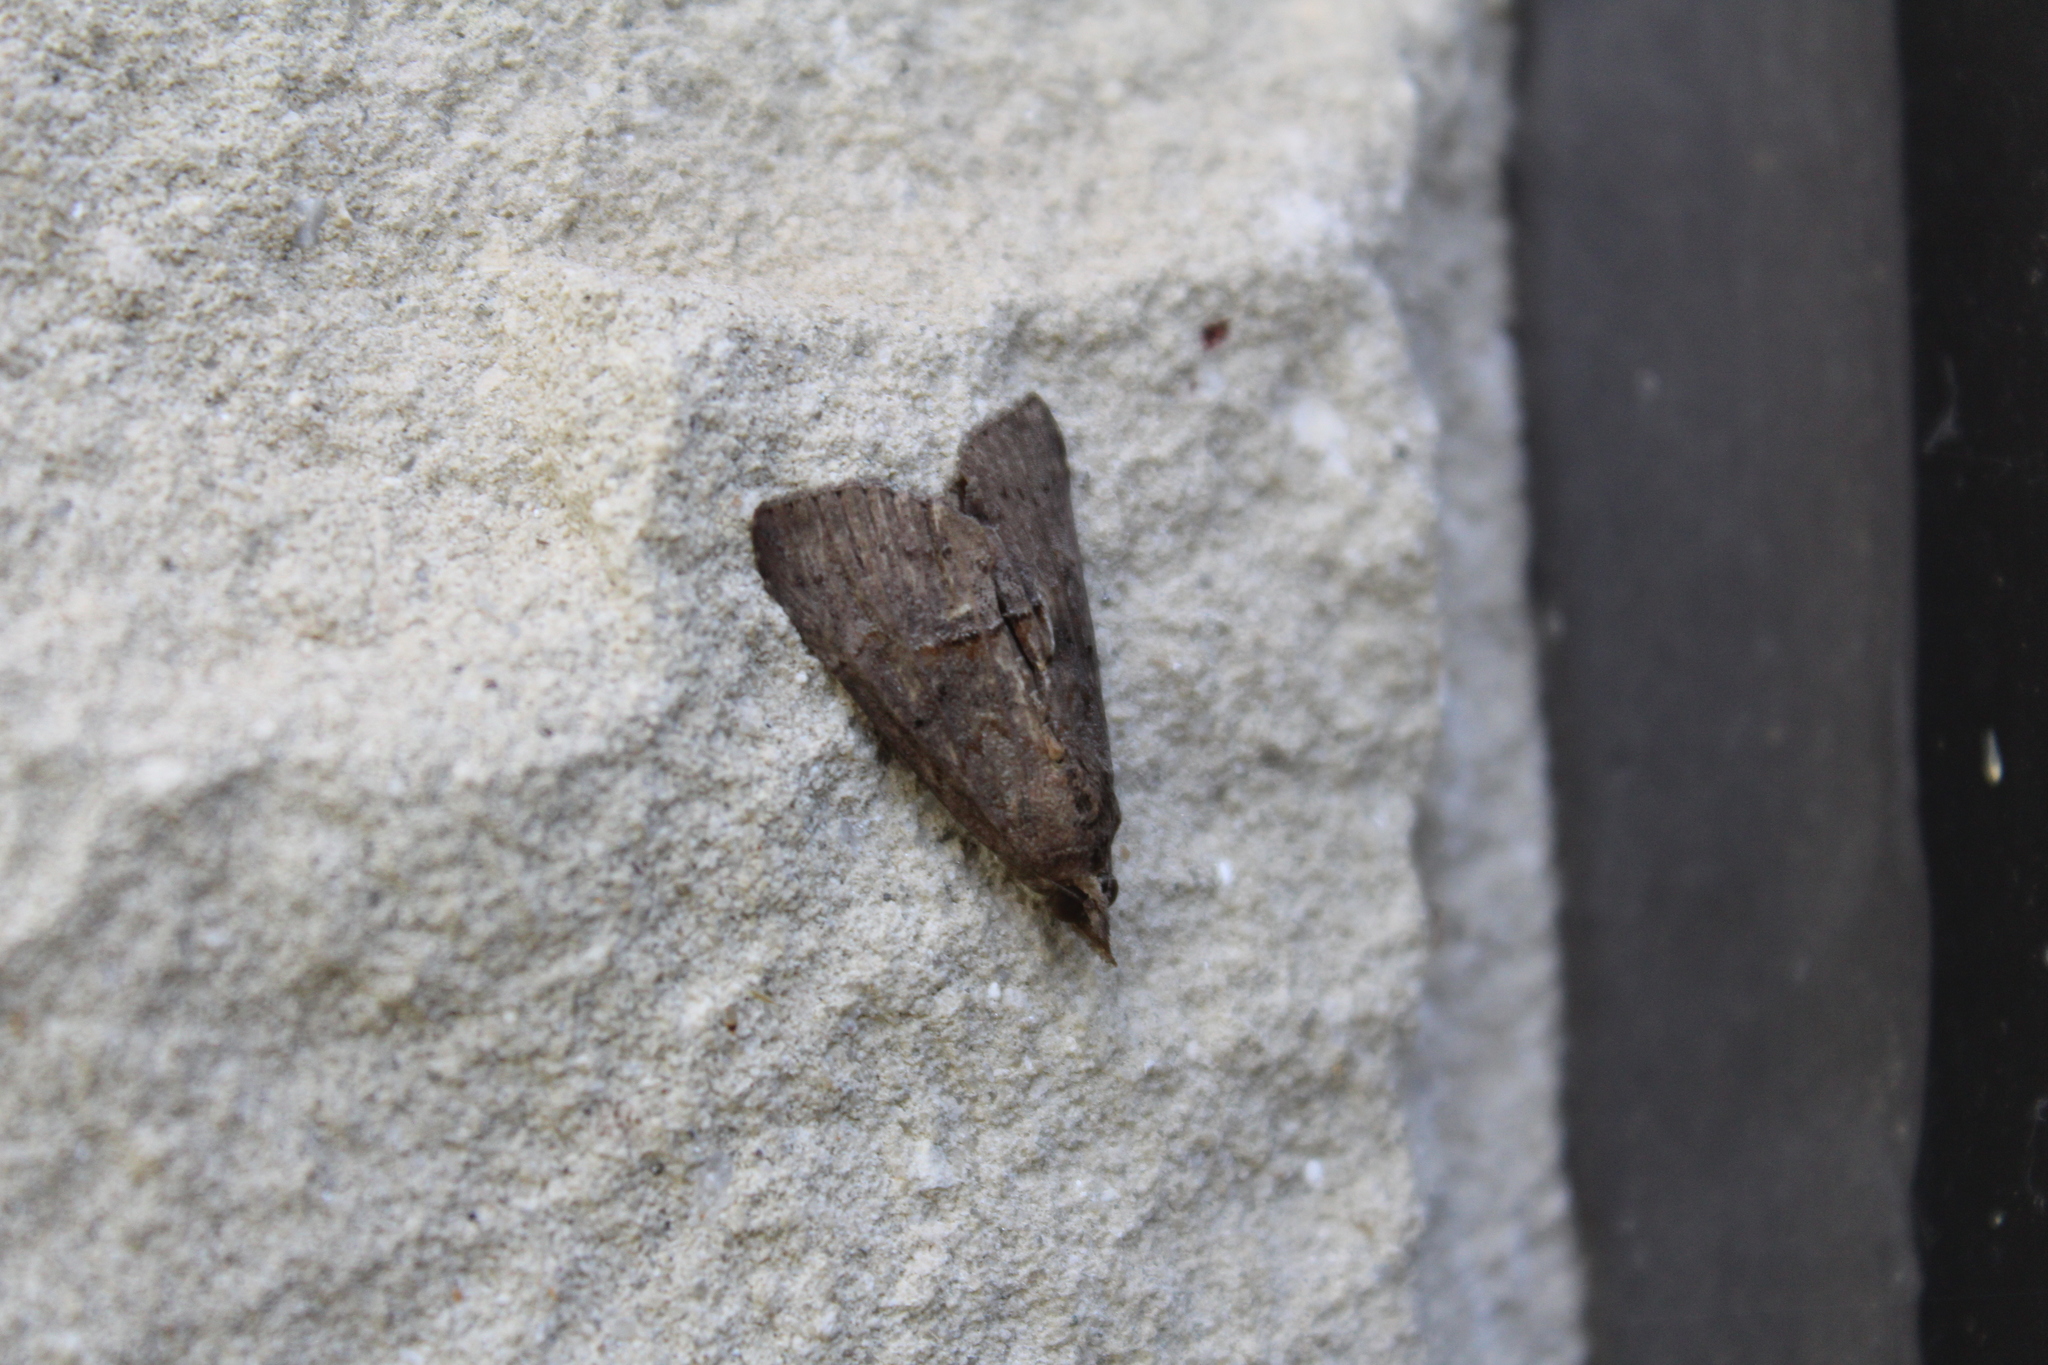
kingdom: Animalia
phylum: Arthropoda
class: Insecta
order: Lepidoptera
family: Erebidae
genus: Hypena
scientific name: Hypena scabra
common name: Green cloverworm
